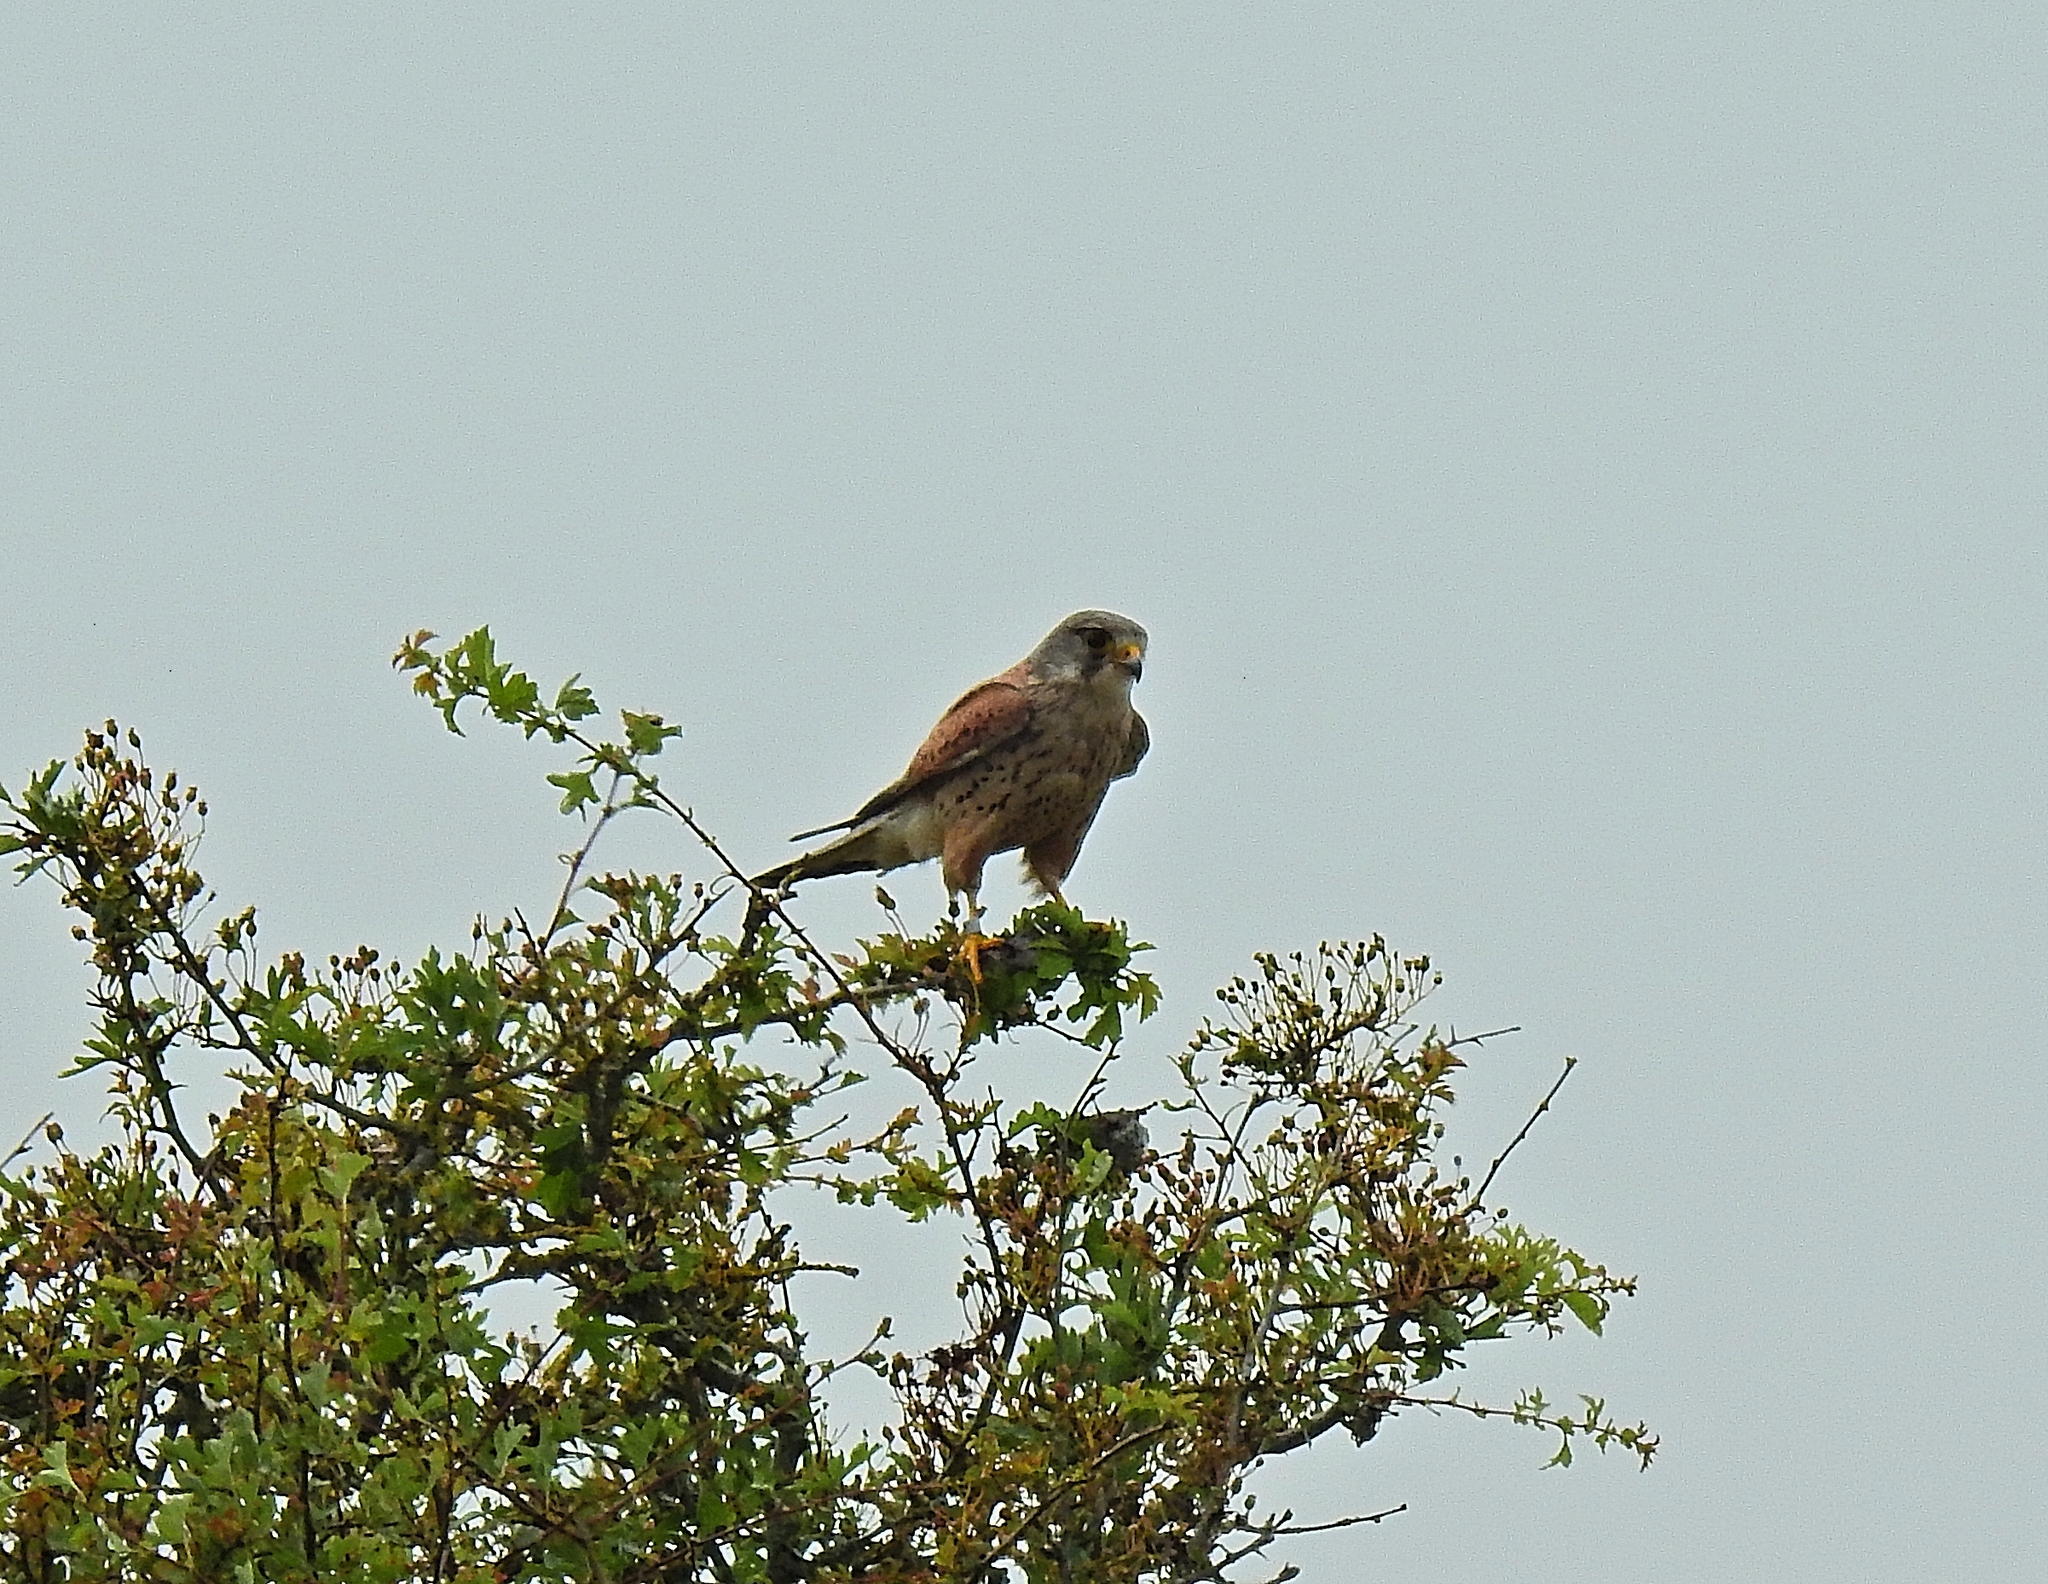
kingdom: Animalia
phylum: Chordata
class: Aves
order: Falconiformes
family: Falconidae
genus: Falco
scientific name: Falco tinnunculus
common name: Common kestrel
